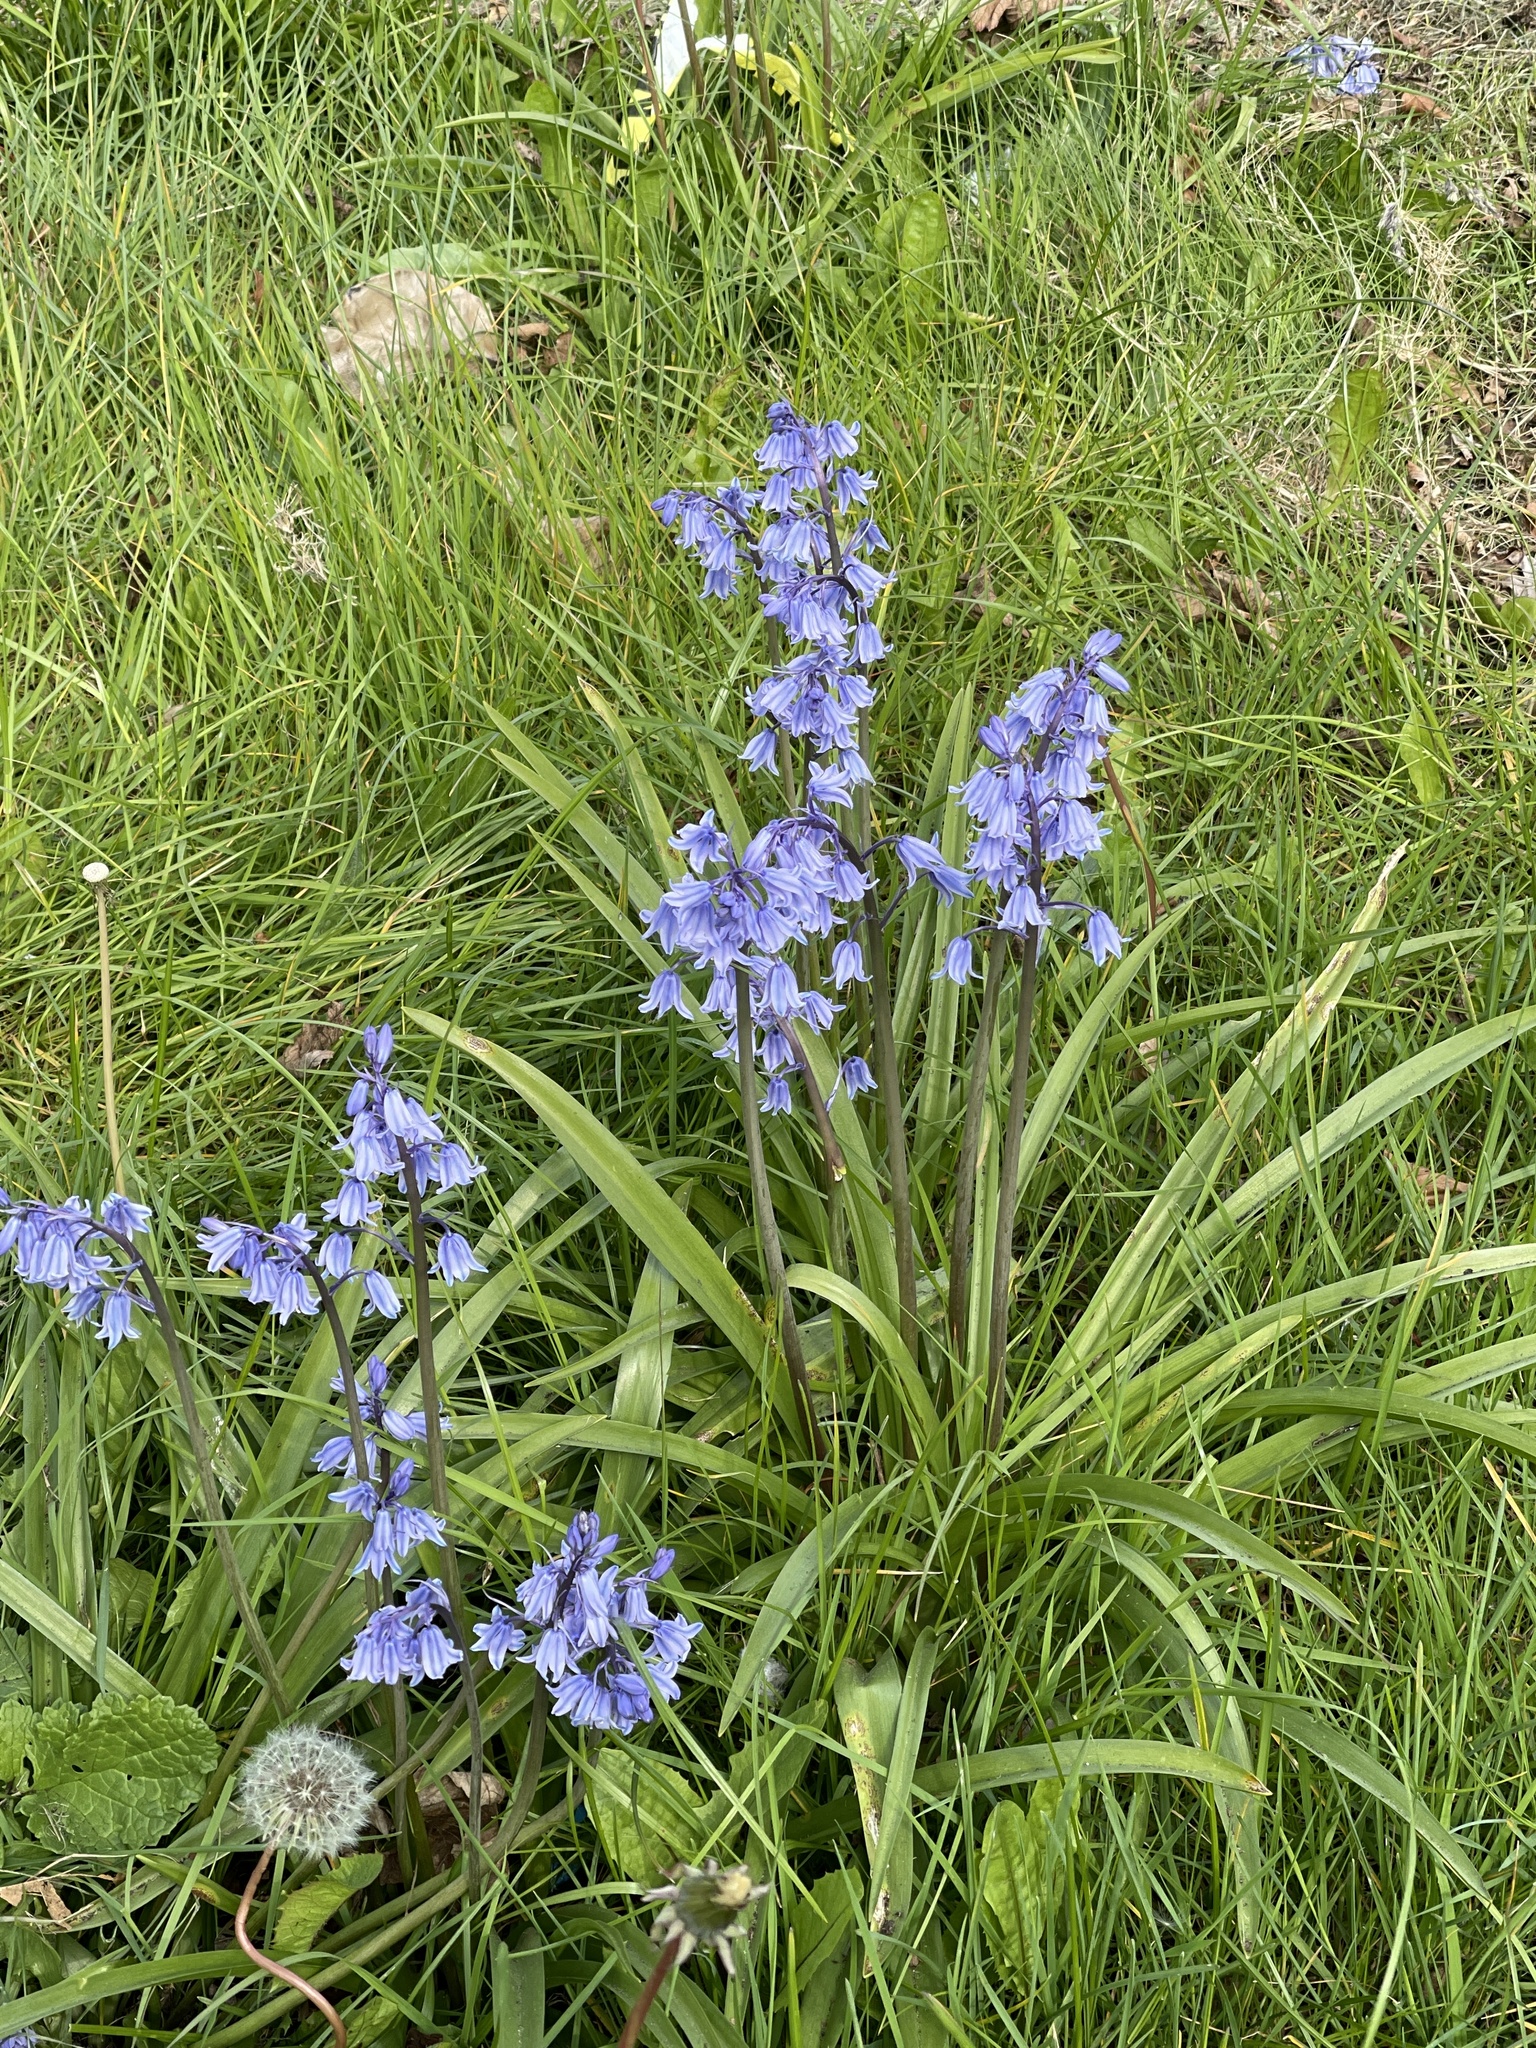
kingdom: Plantae
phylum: Tracheophyta
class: Liliopsida
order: Asparagales
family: Asparagaceae
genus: Hyacinthoides
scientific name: Hyacinthoides massartiana
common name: Hyacinthoides
